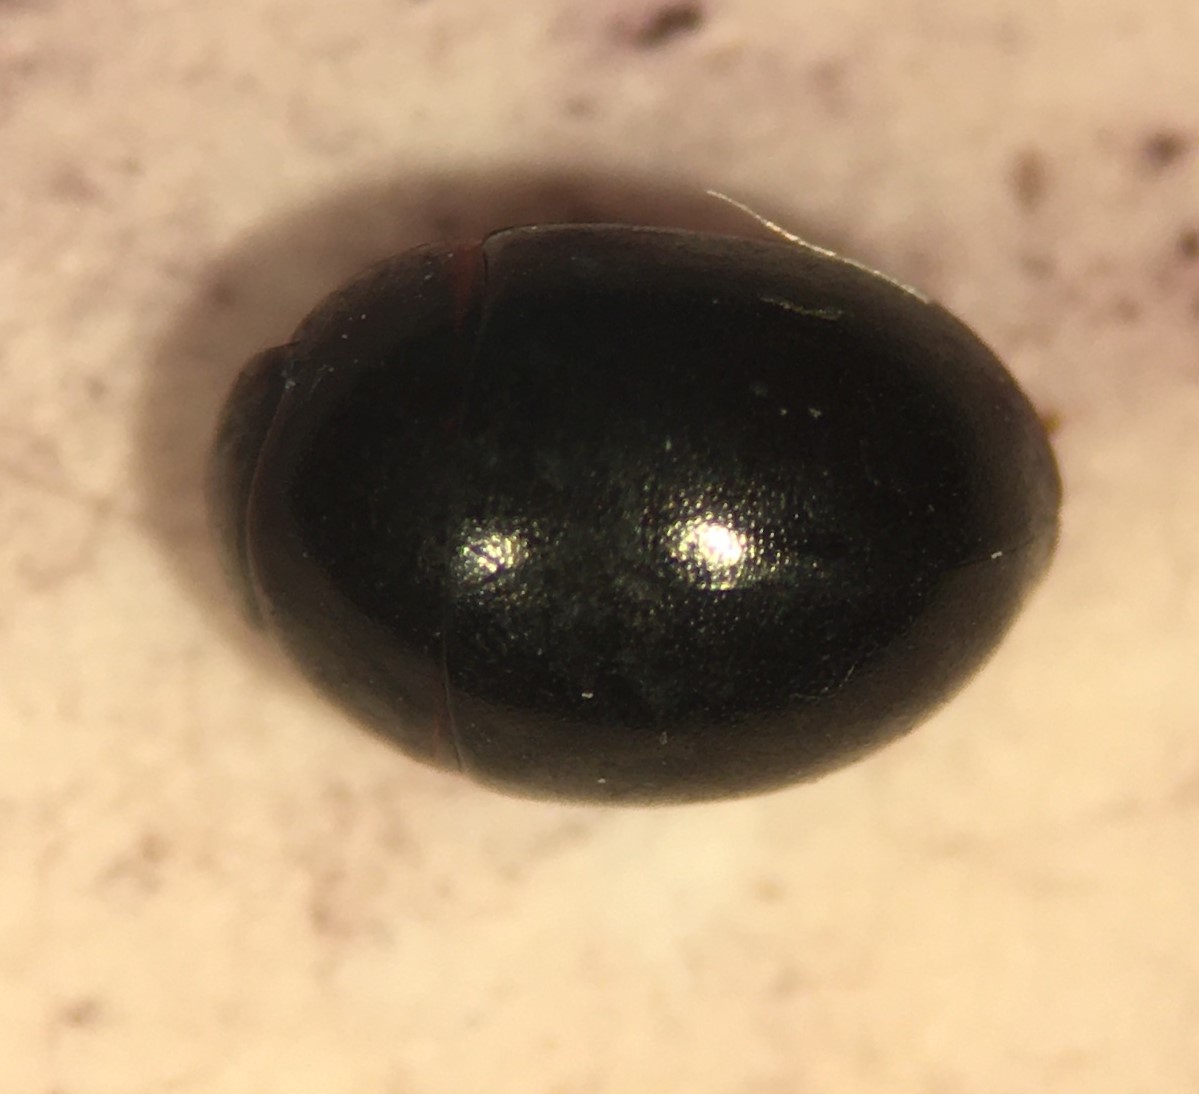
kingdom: Animalia
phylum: Arthropoda
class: Insecta
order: Coleoptera
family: Hydrophilidae
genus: Phaenonotum
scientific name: Phaenonotum minus
